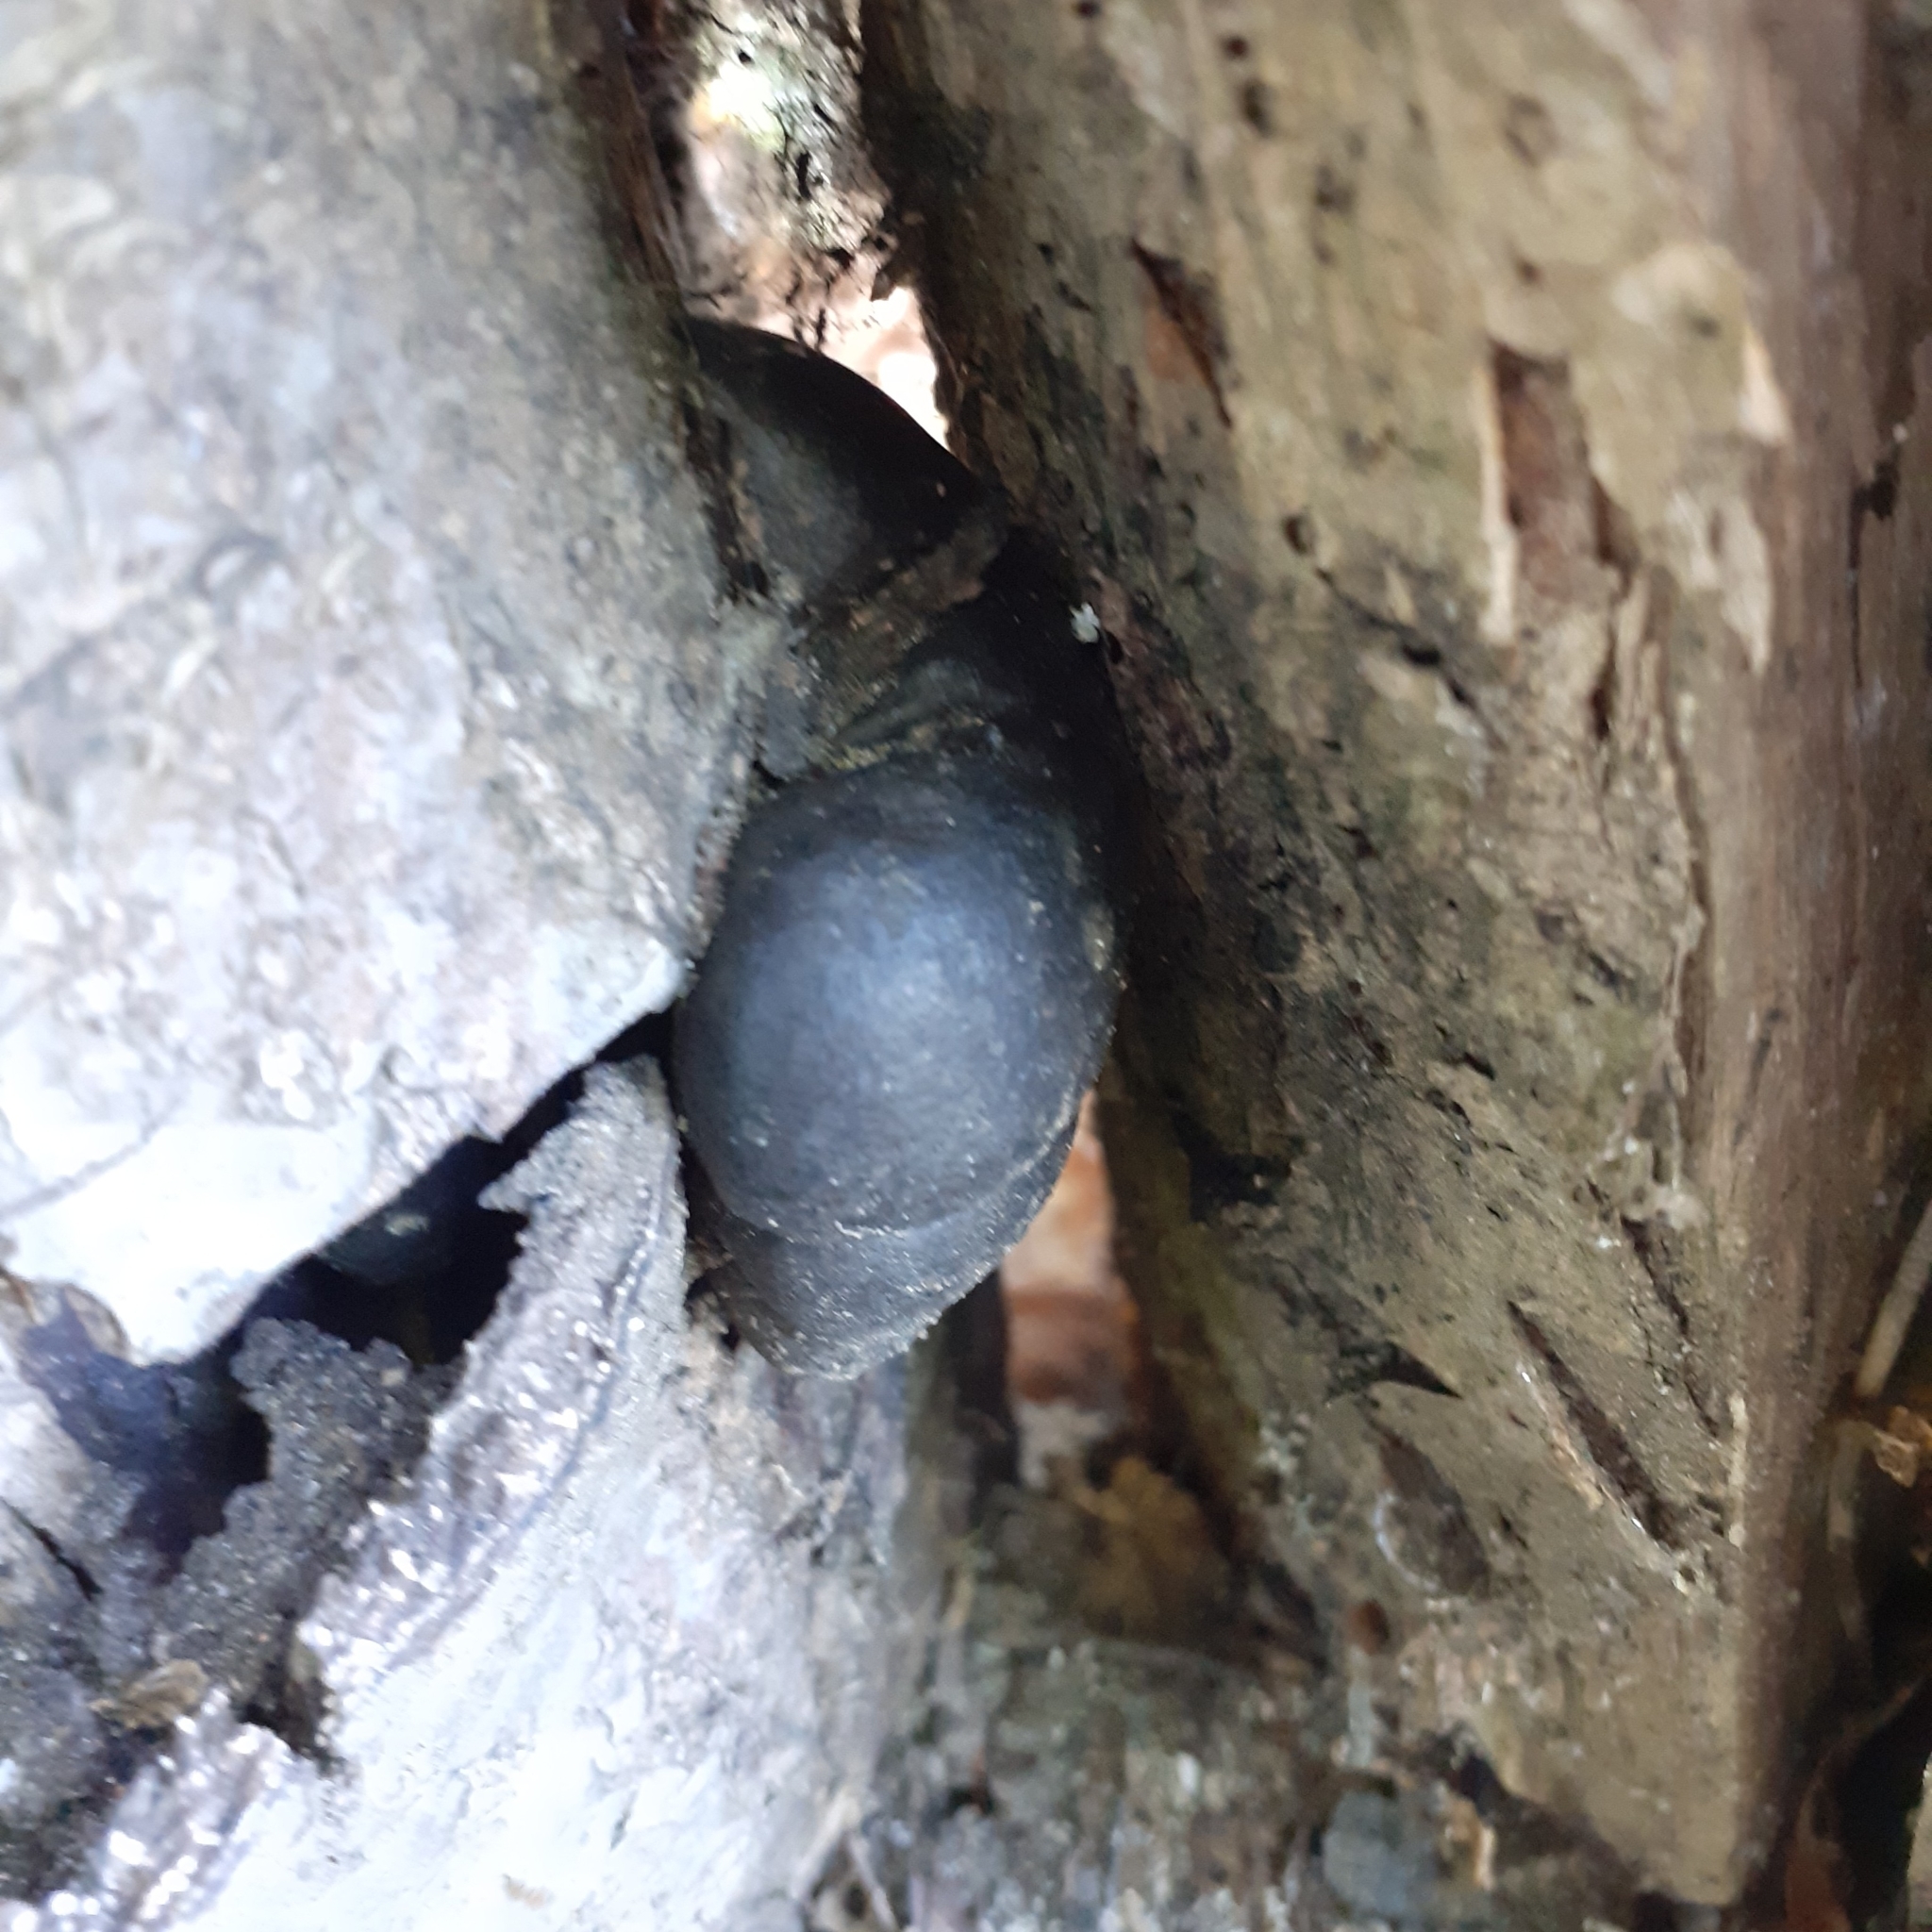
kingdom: Fungi
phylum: Ascomycota
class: Sordariomycetes
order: Xylariales
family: Hypoxylaceae
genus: Daldinia
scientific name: Daldinia concentrica
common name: Cramp balls
